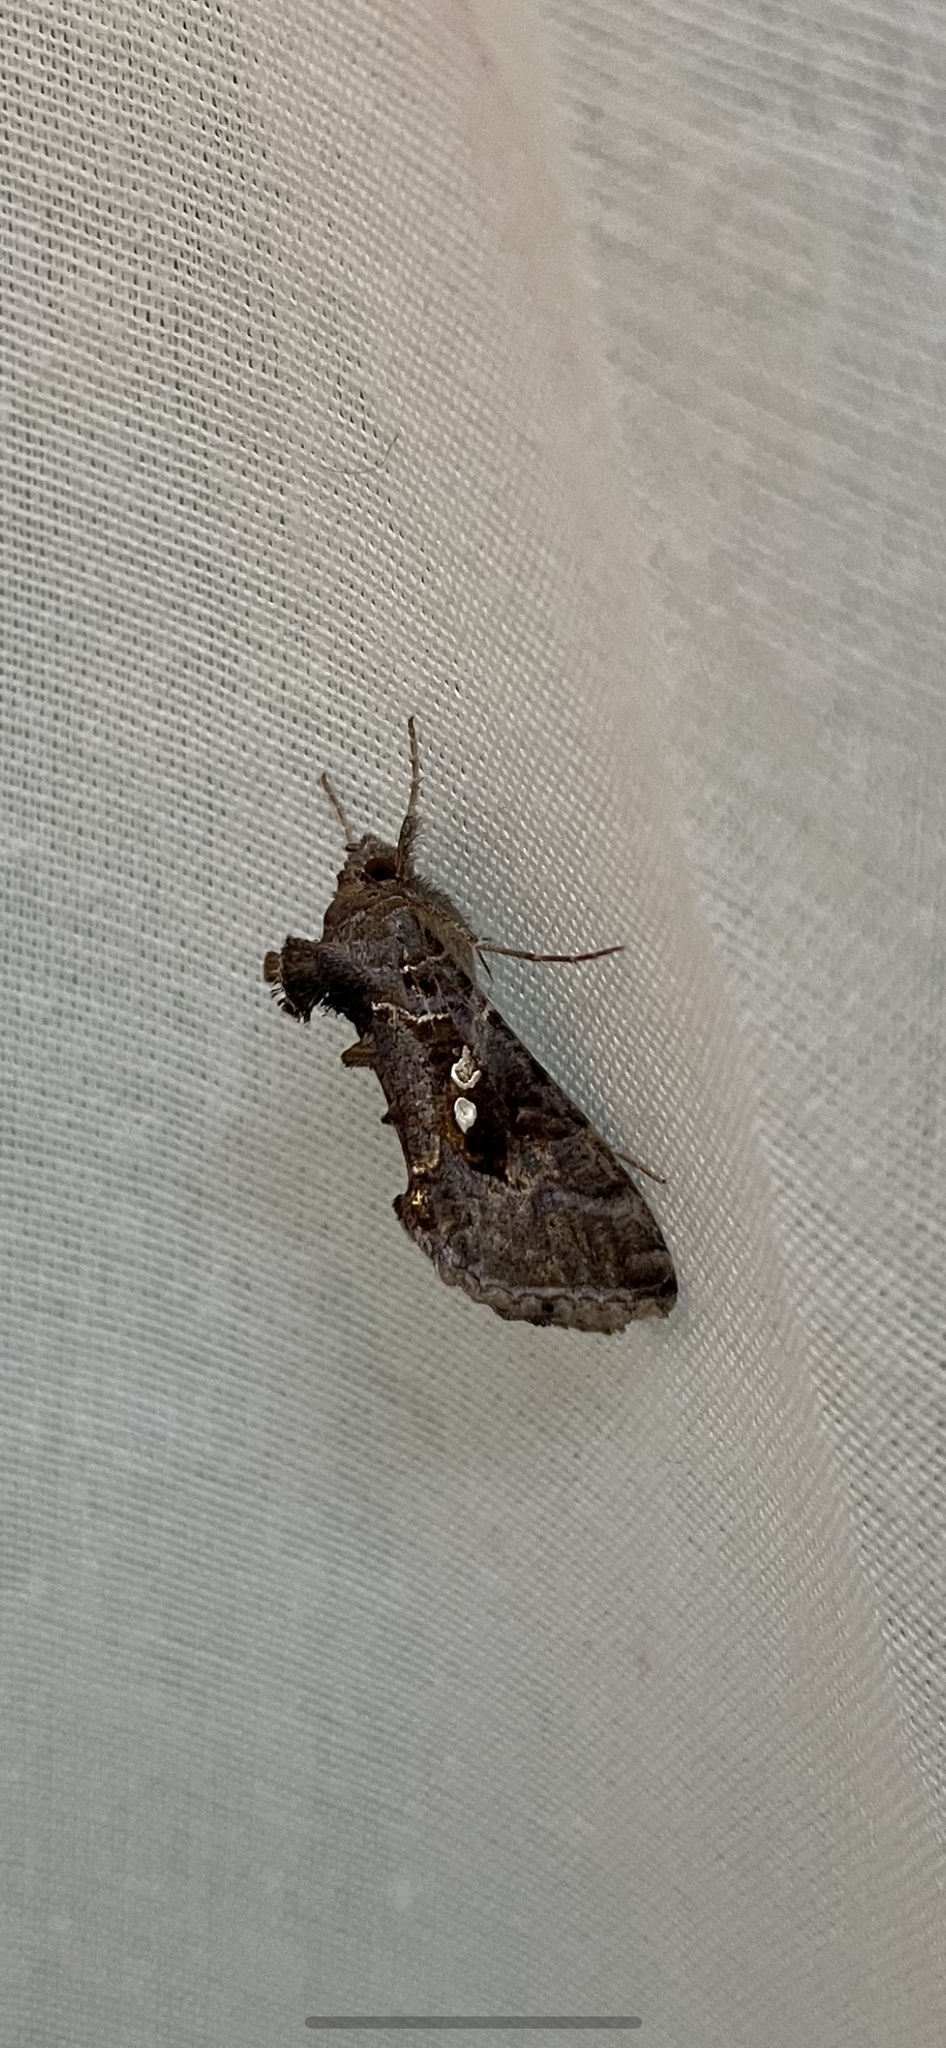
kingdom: Animalia
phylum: Arthropoda
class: Insecta
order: Lepidoptera
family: Noctuidae
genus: Chrysodeixis
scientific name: Chrysodeixis includens
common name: Cutworm moth
